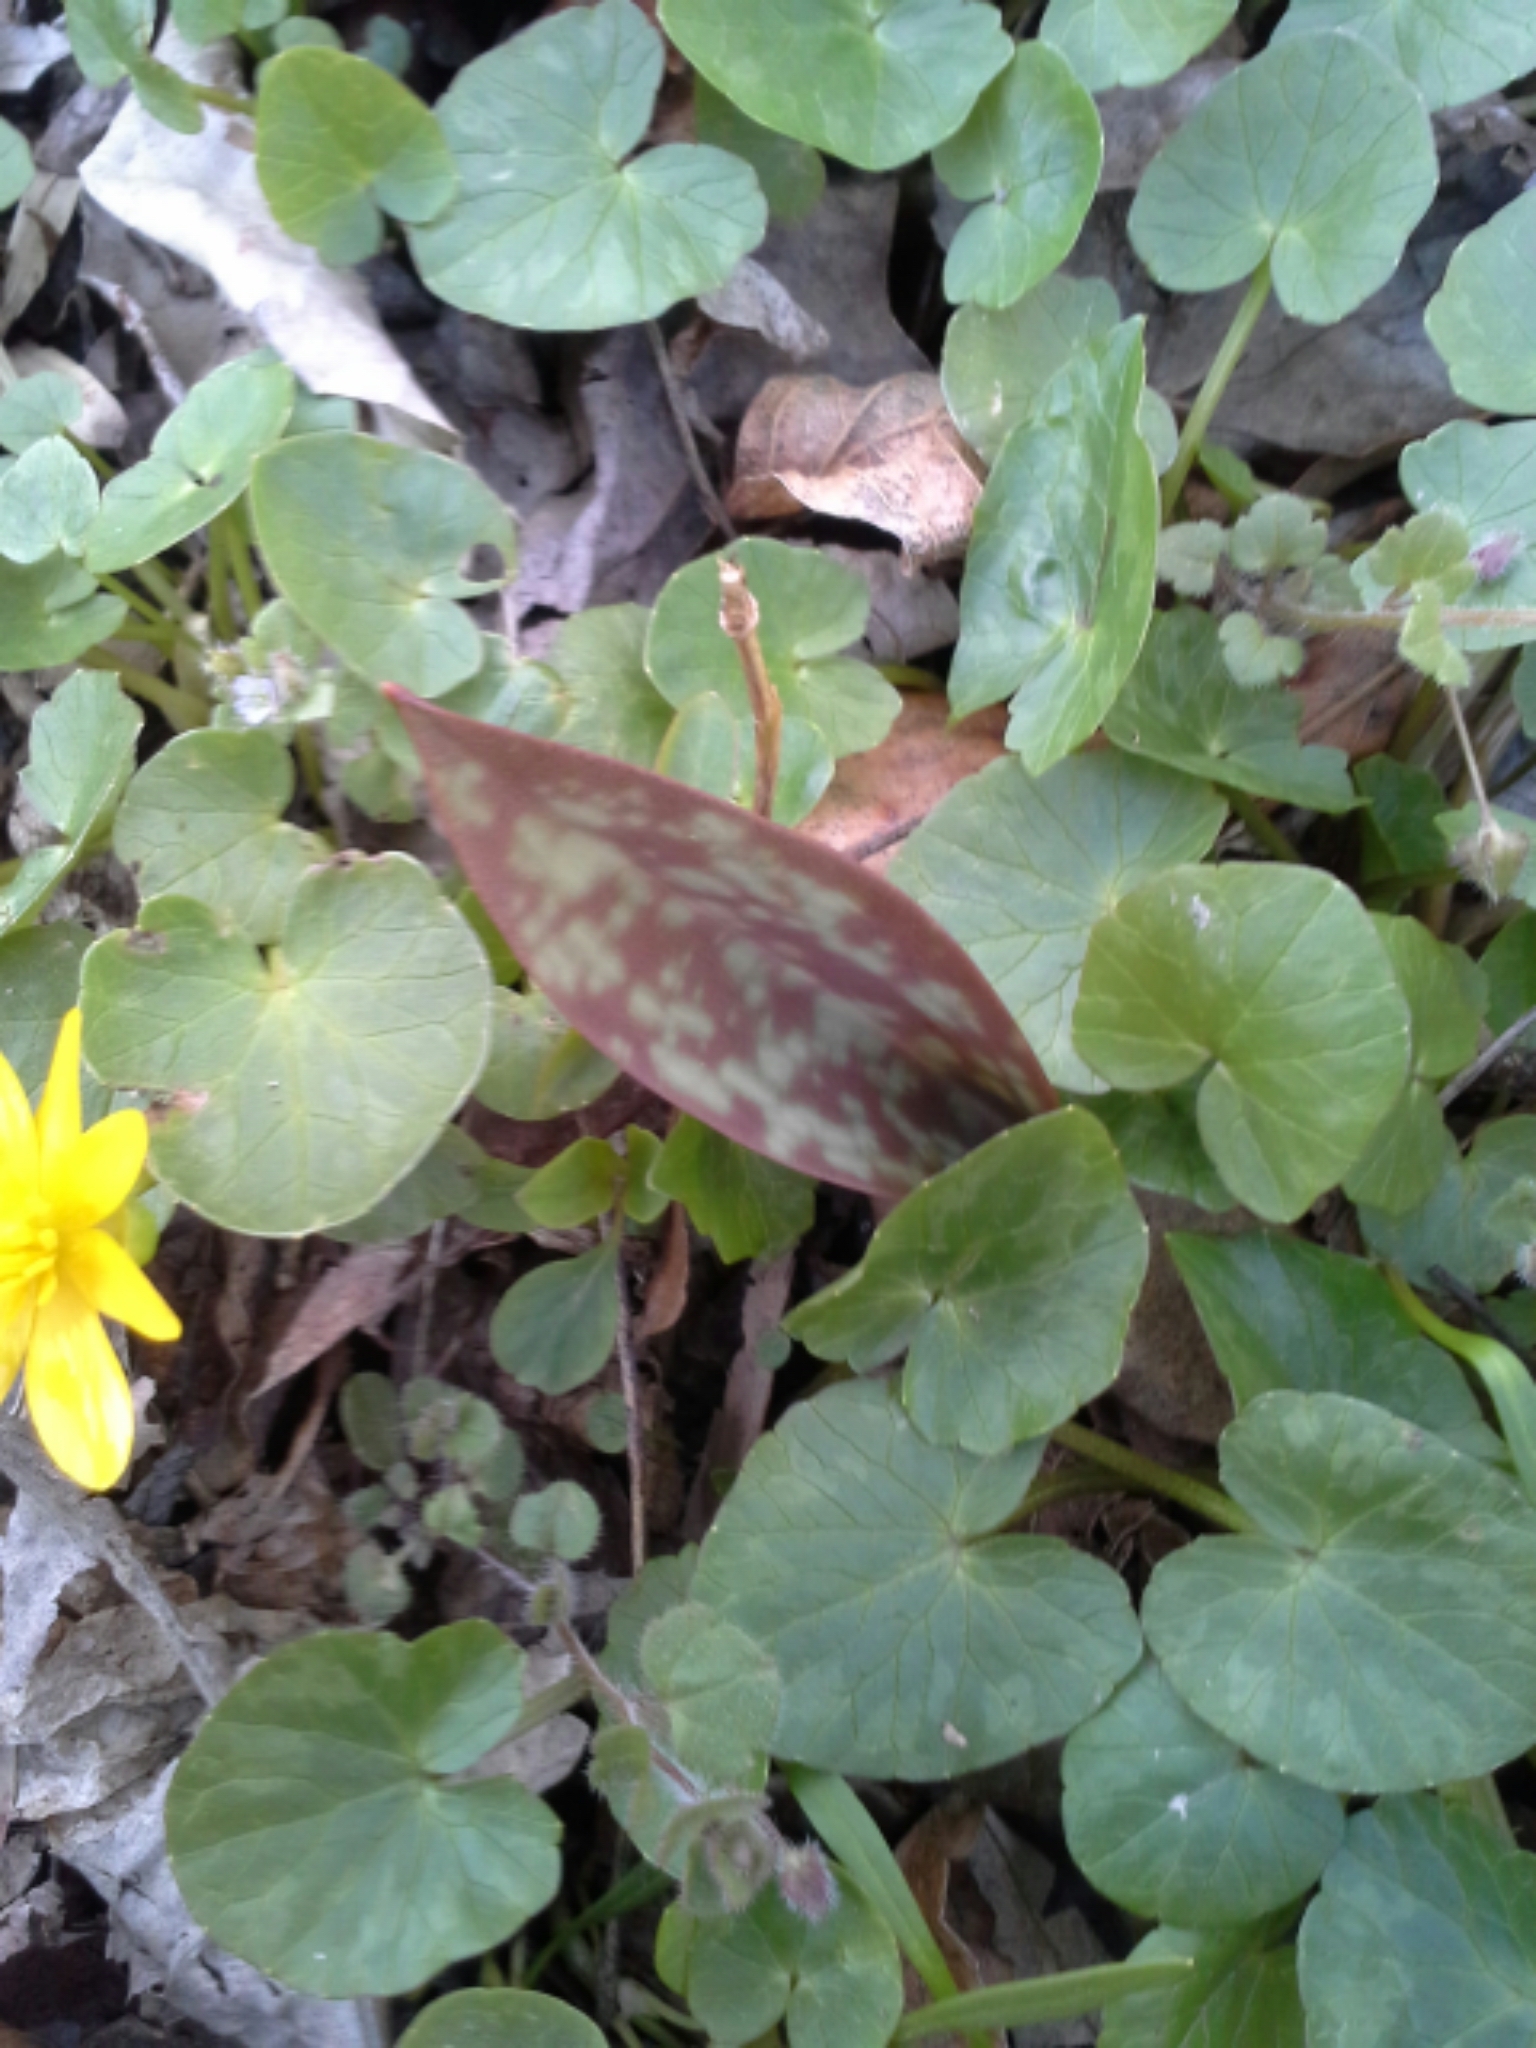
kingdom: Plantae
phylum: Tracheophyta
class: Liliopsida
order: Liliales
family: Liliaceae
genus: Erythronium
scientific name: Erythronium americanum
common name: Yellow adder's-tongue
